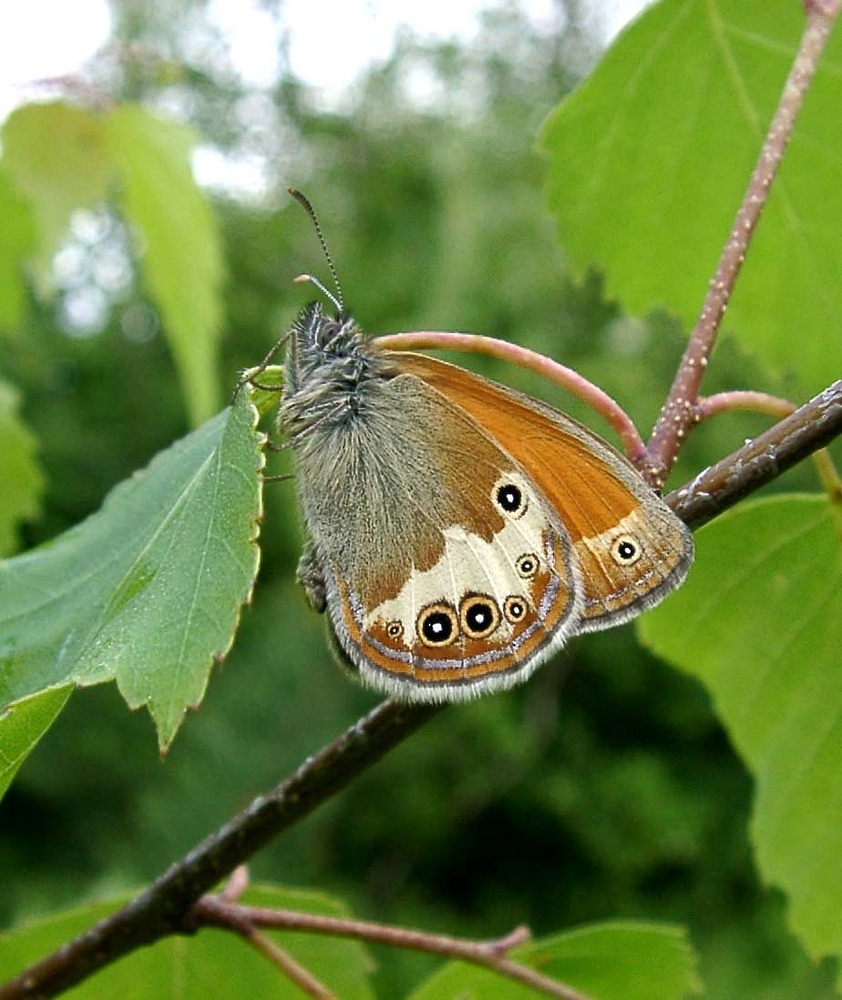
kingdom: Animalia
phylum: Arthropoda
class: Insecta
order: Lepidoptera
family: Nymphalidae
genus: Coenonympha
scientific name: Coenonympha arcania
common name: Pearly heath
